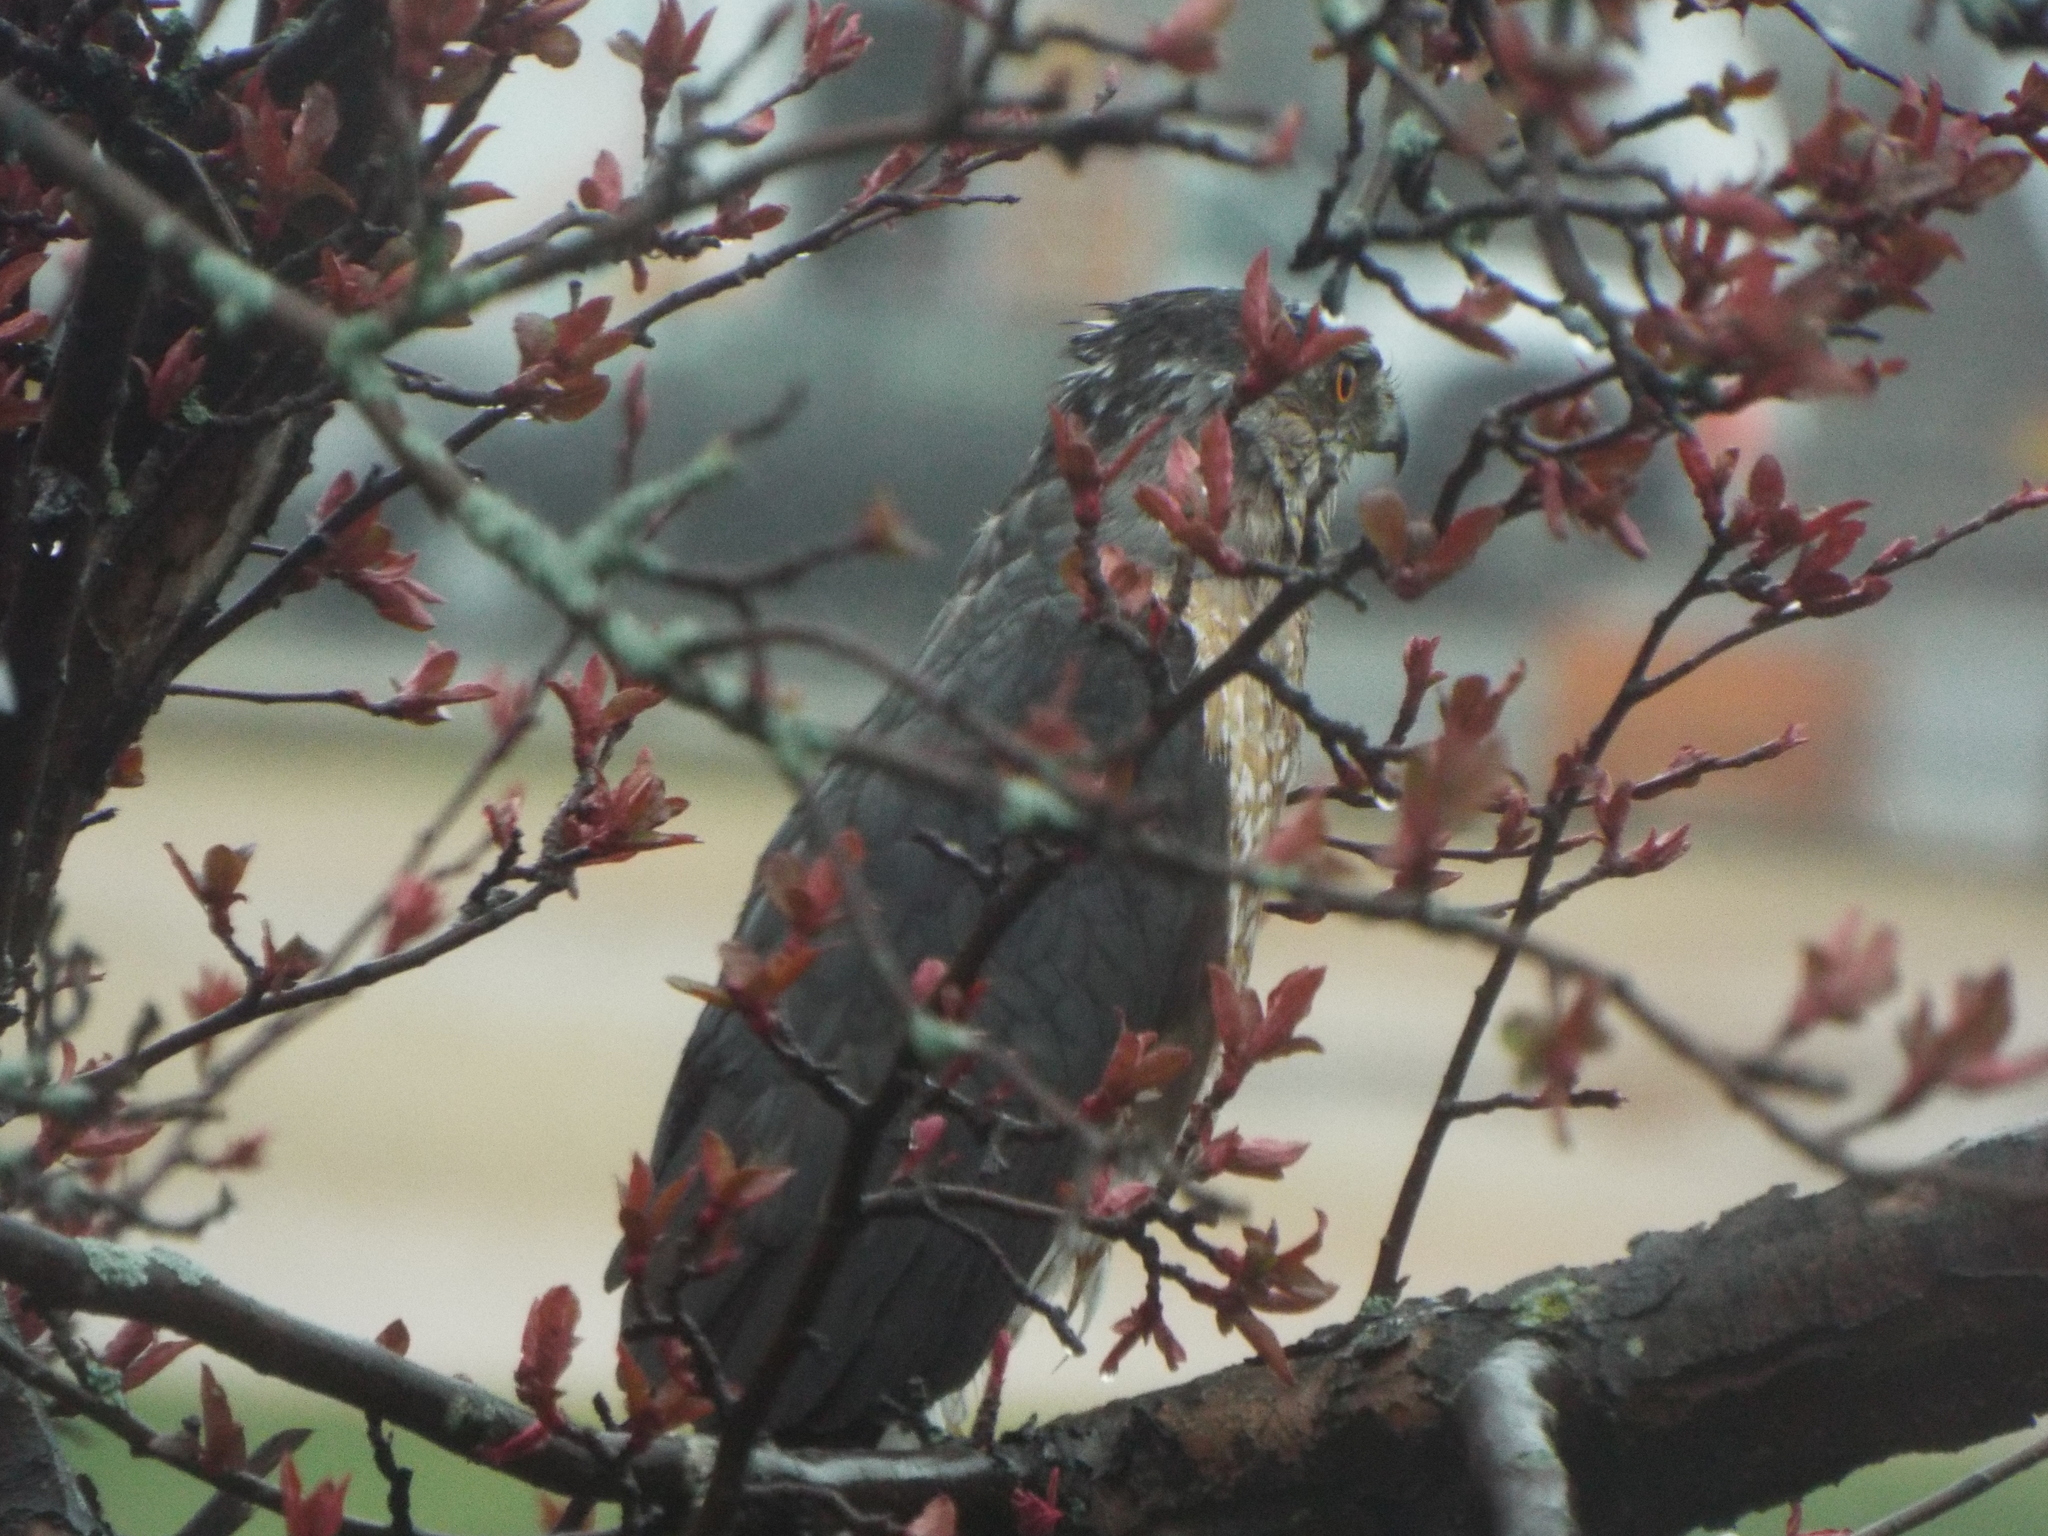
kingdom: Animalia
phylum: Chordata
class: Aves
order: Accipitriformes
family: Accipitridae
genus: Accipiter
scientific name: Accipiter cooperii
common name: Cooper's hawk
